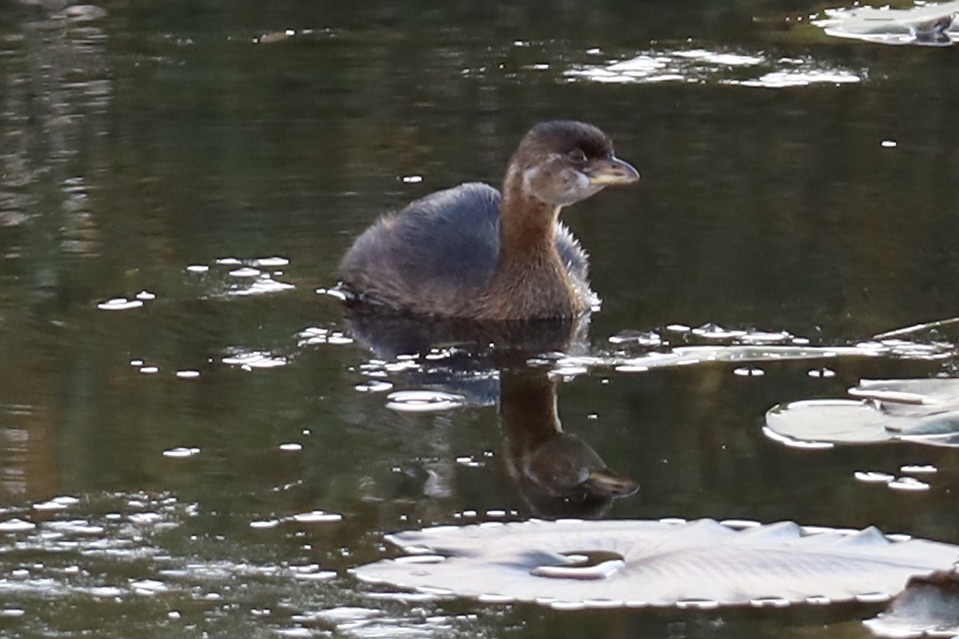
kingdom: Animalia
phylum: Chordata
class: Aves
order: Podicipediformes
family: Podicipedidae
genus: Podilymbus
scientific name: Podilymbus podiceps
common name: Pied-billed grebe
